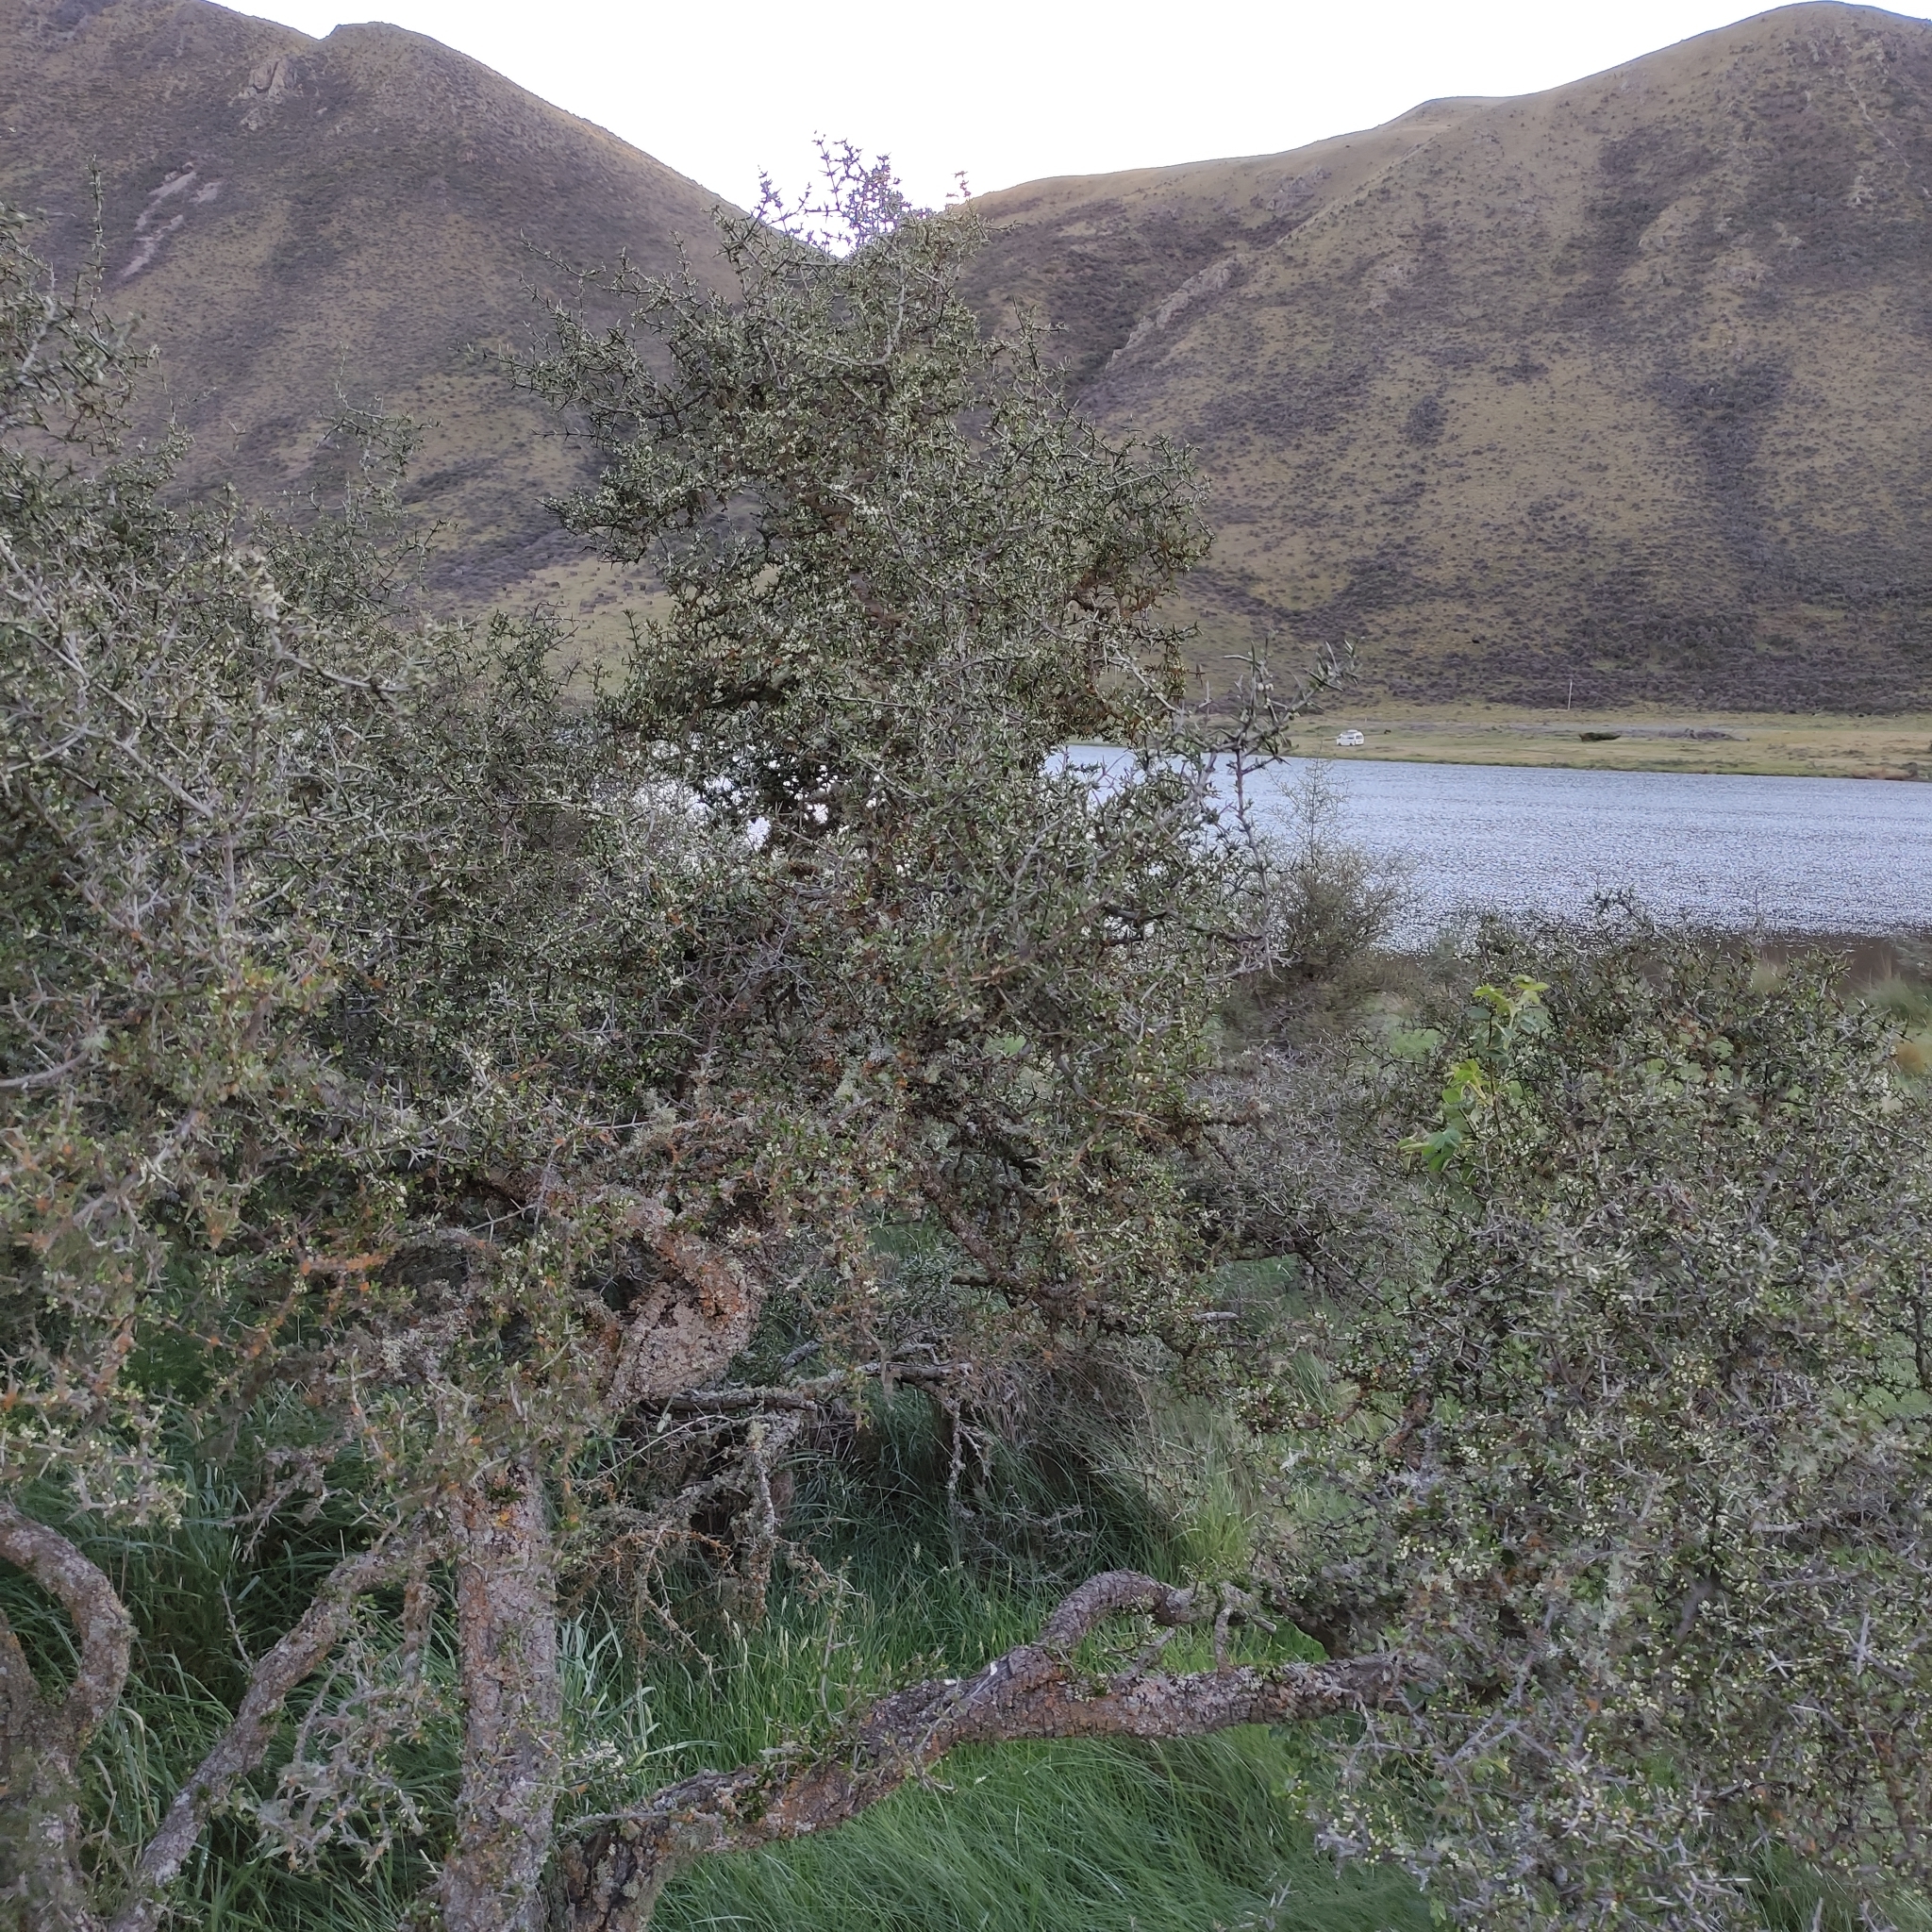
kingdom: Plantae
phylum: Tracheophyta
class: Magnoliopsida
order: Rosales
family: Rhamnaceae
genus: Discaria
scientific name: Discaria toumatou
